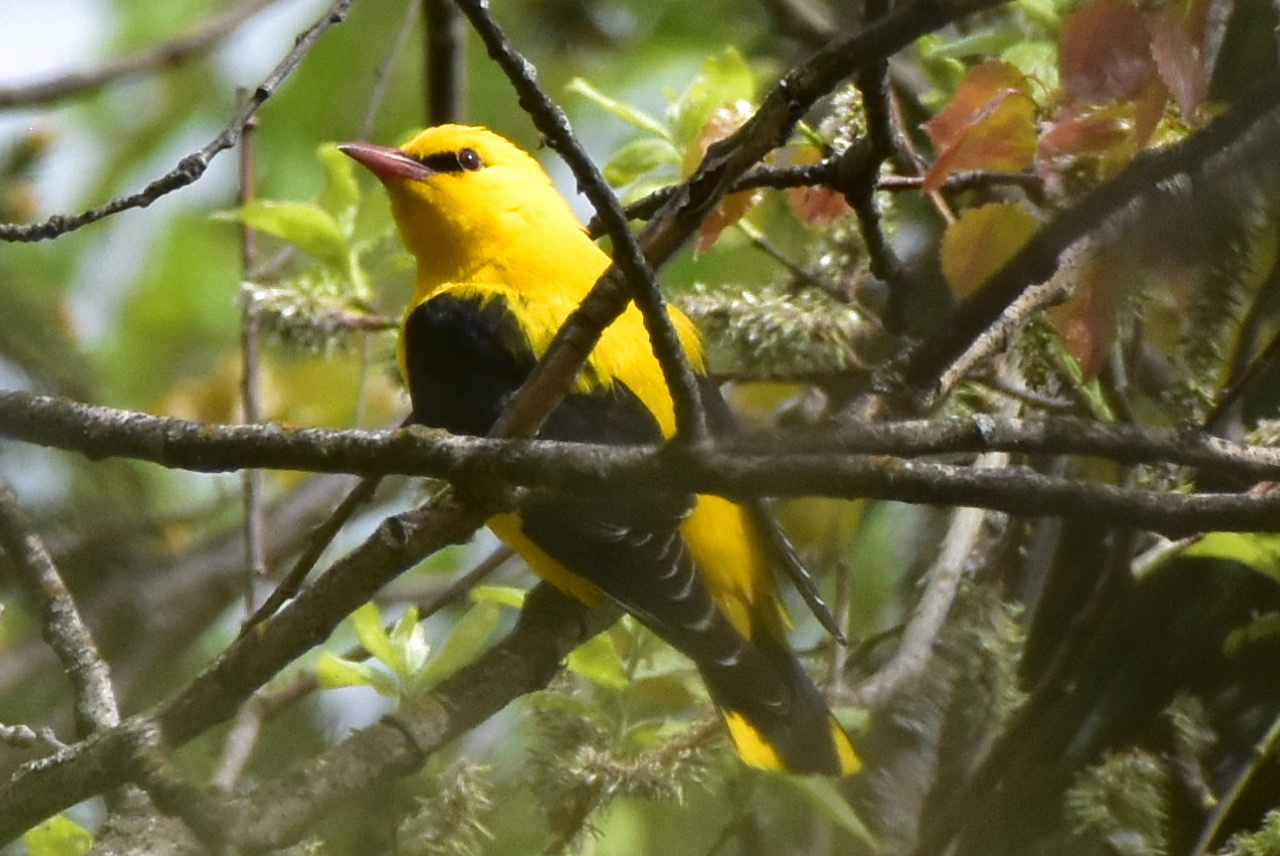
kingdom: Animalia
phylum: Chordata
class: Aves
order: Passeriformes
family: Oriolidae
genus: Oriolus
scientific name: Oriolus oriolus
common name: Eurasian golden oriole
